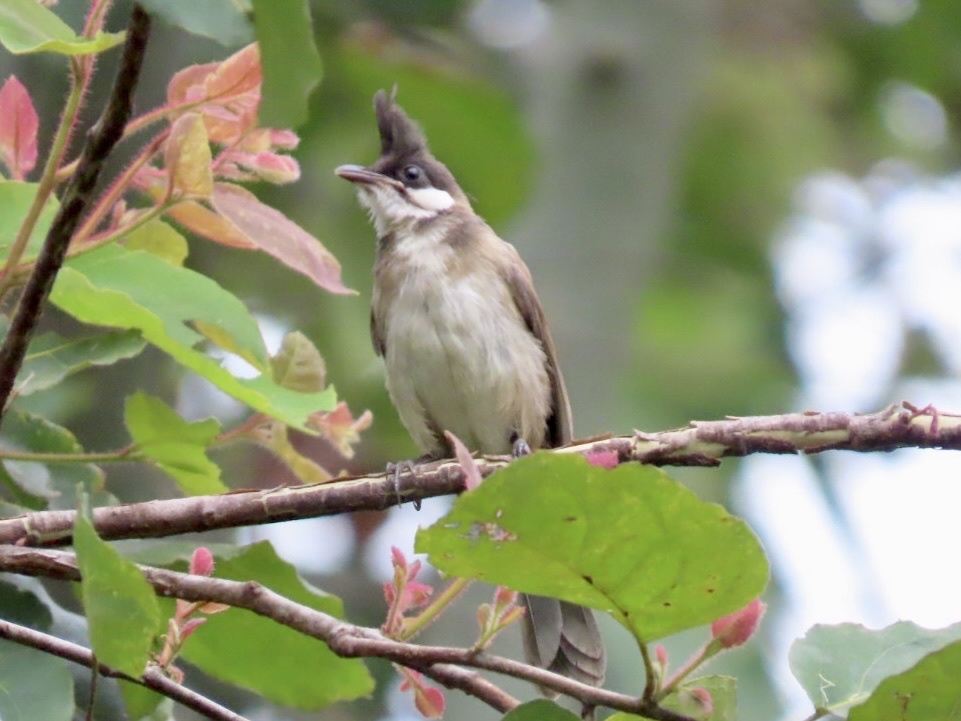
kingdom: Animalia
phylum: Chordata
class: Aves
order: Passeriformes
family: Pycnonotidae
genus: Pycnonotus
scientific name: Pycnonotus jocosus
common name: Red-whiskered bulbul
